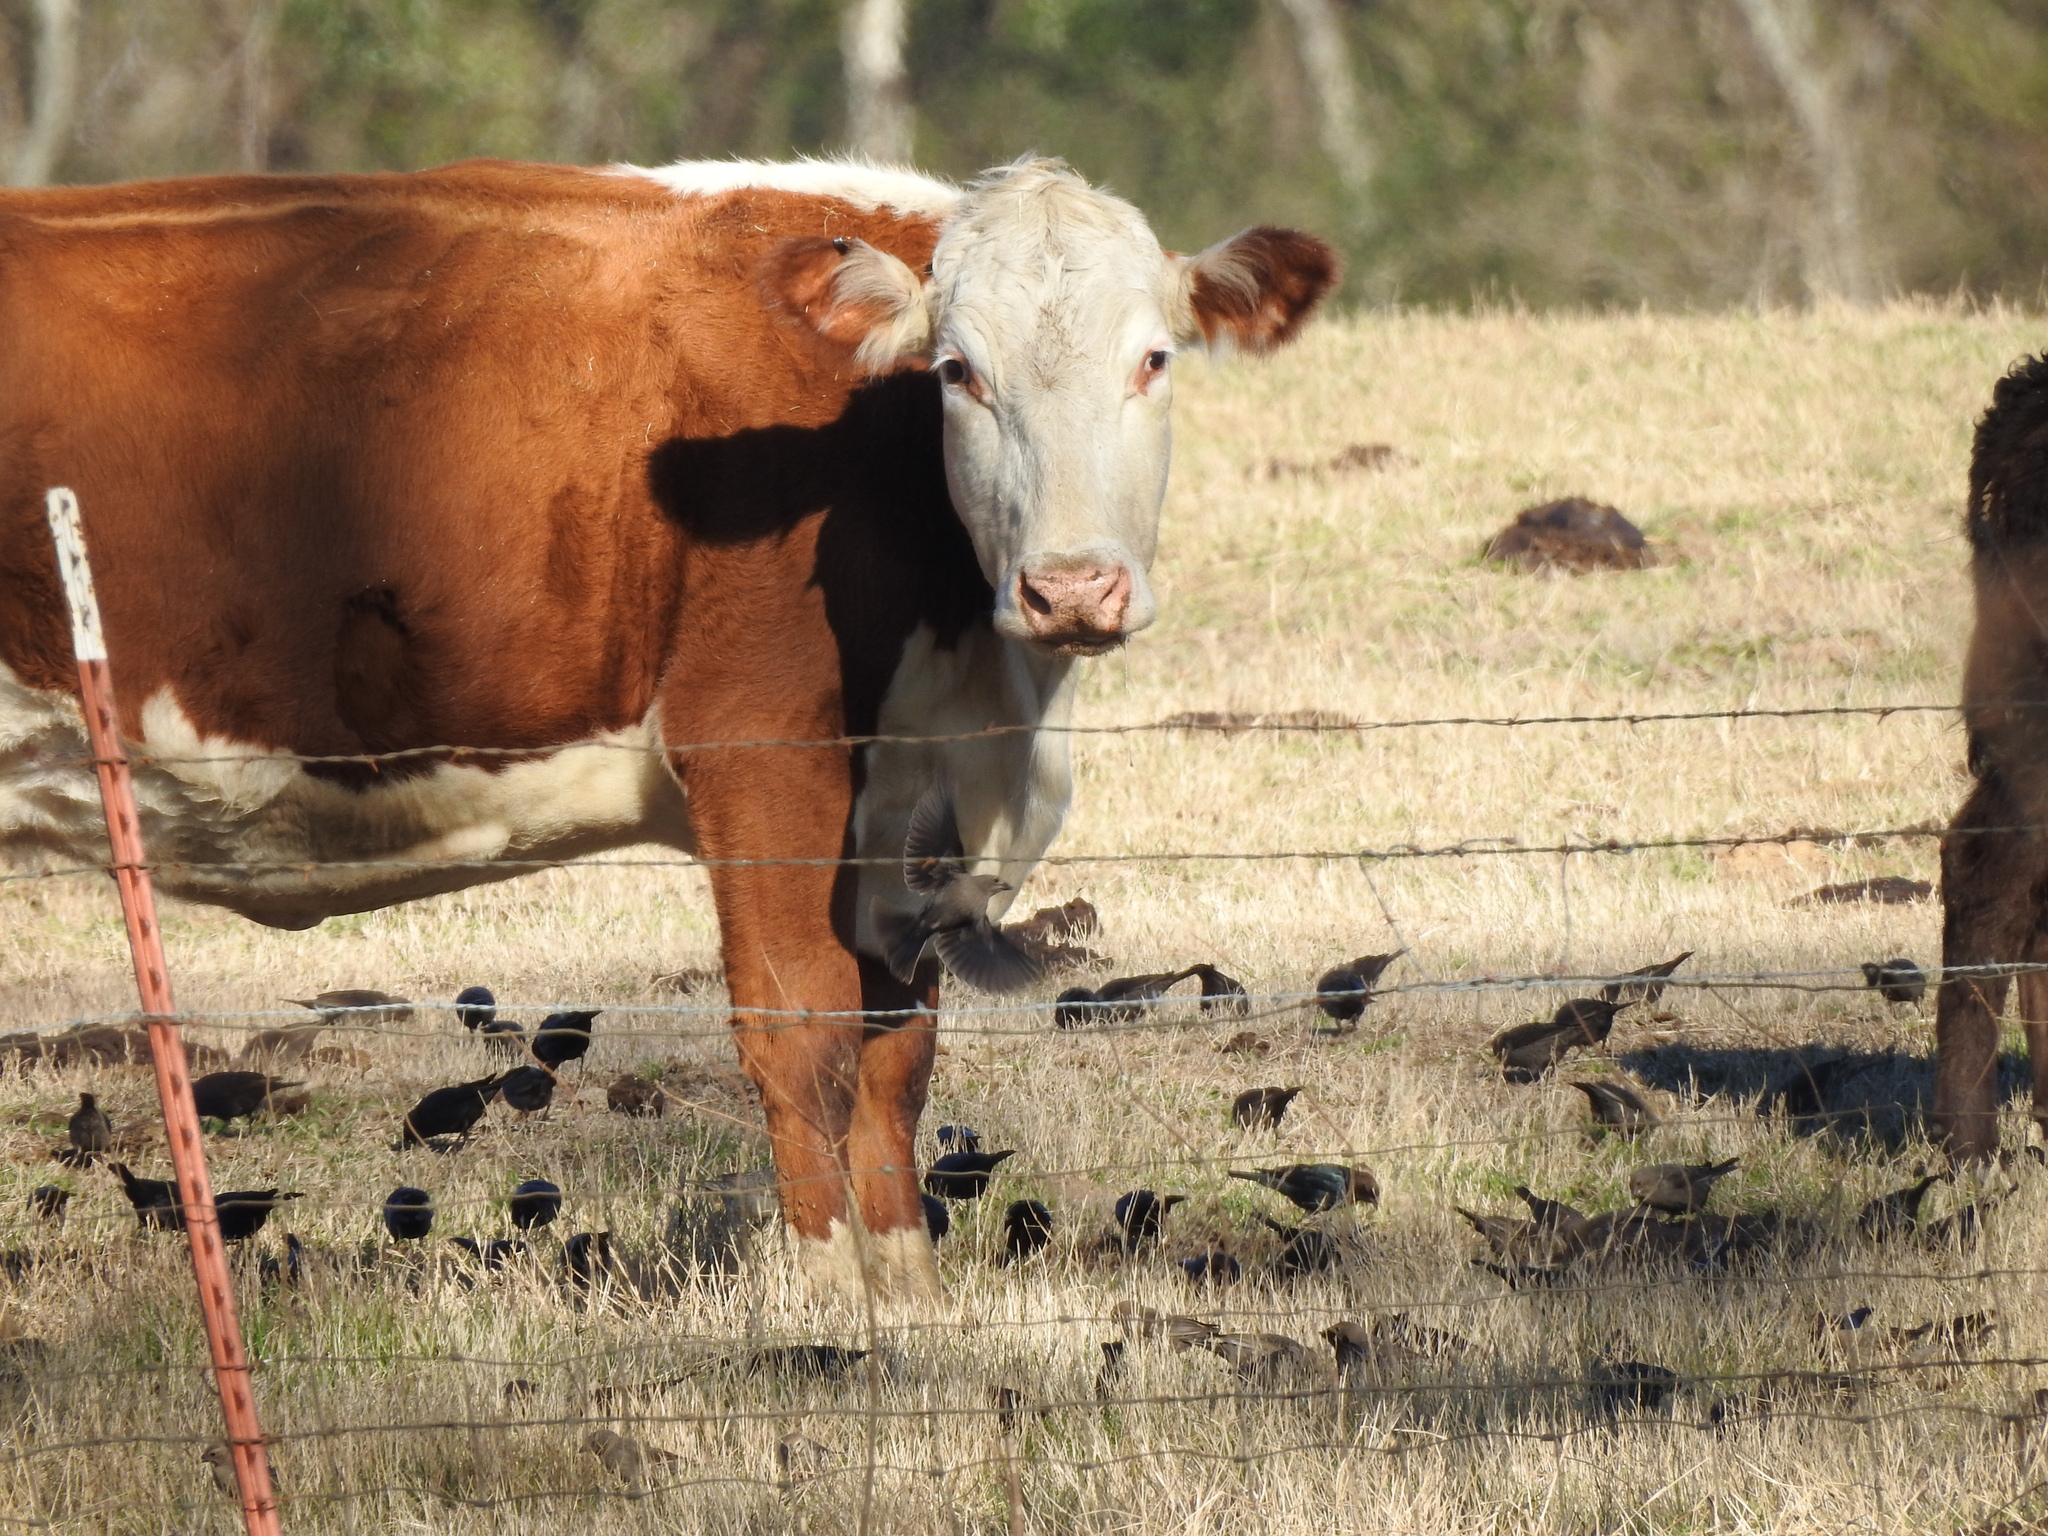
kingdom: Animalia
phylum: Chordata
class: Aves
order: Passeriformes
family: Icteridae
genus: Molothrus
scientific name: Molothrus ater
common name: Brown-headed cowbird
